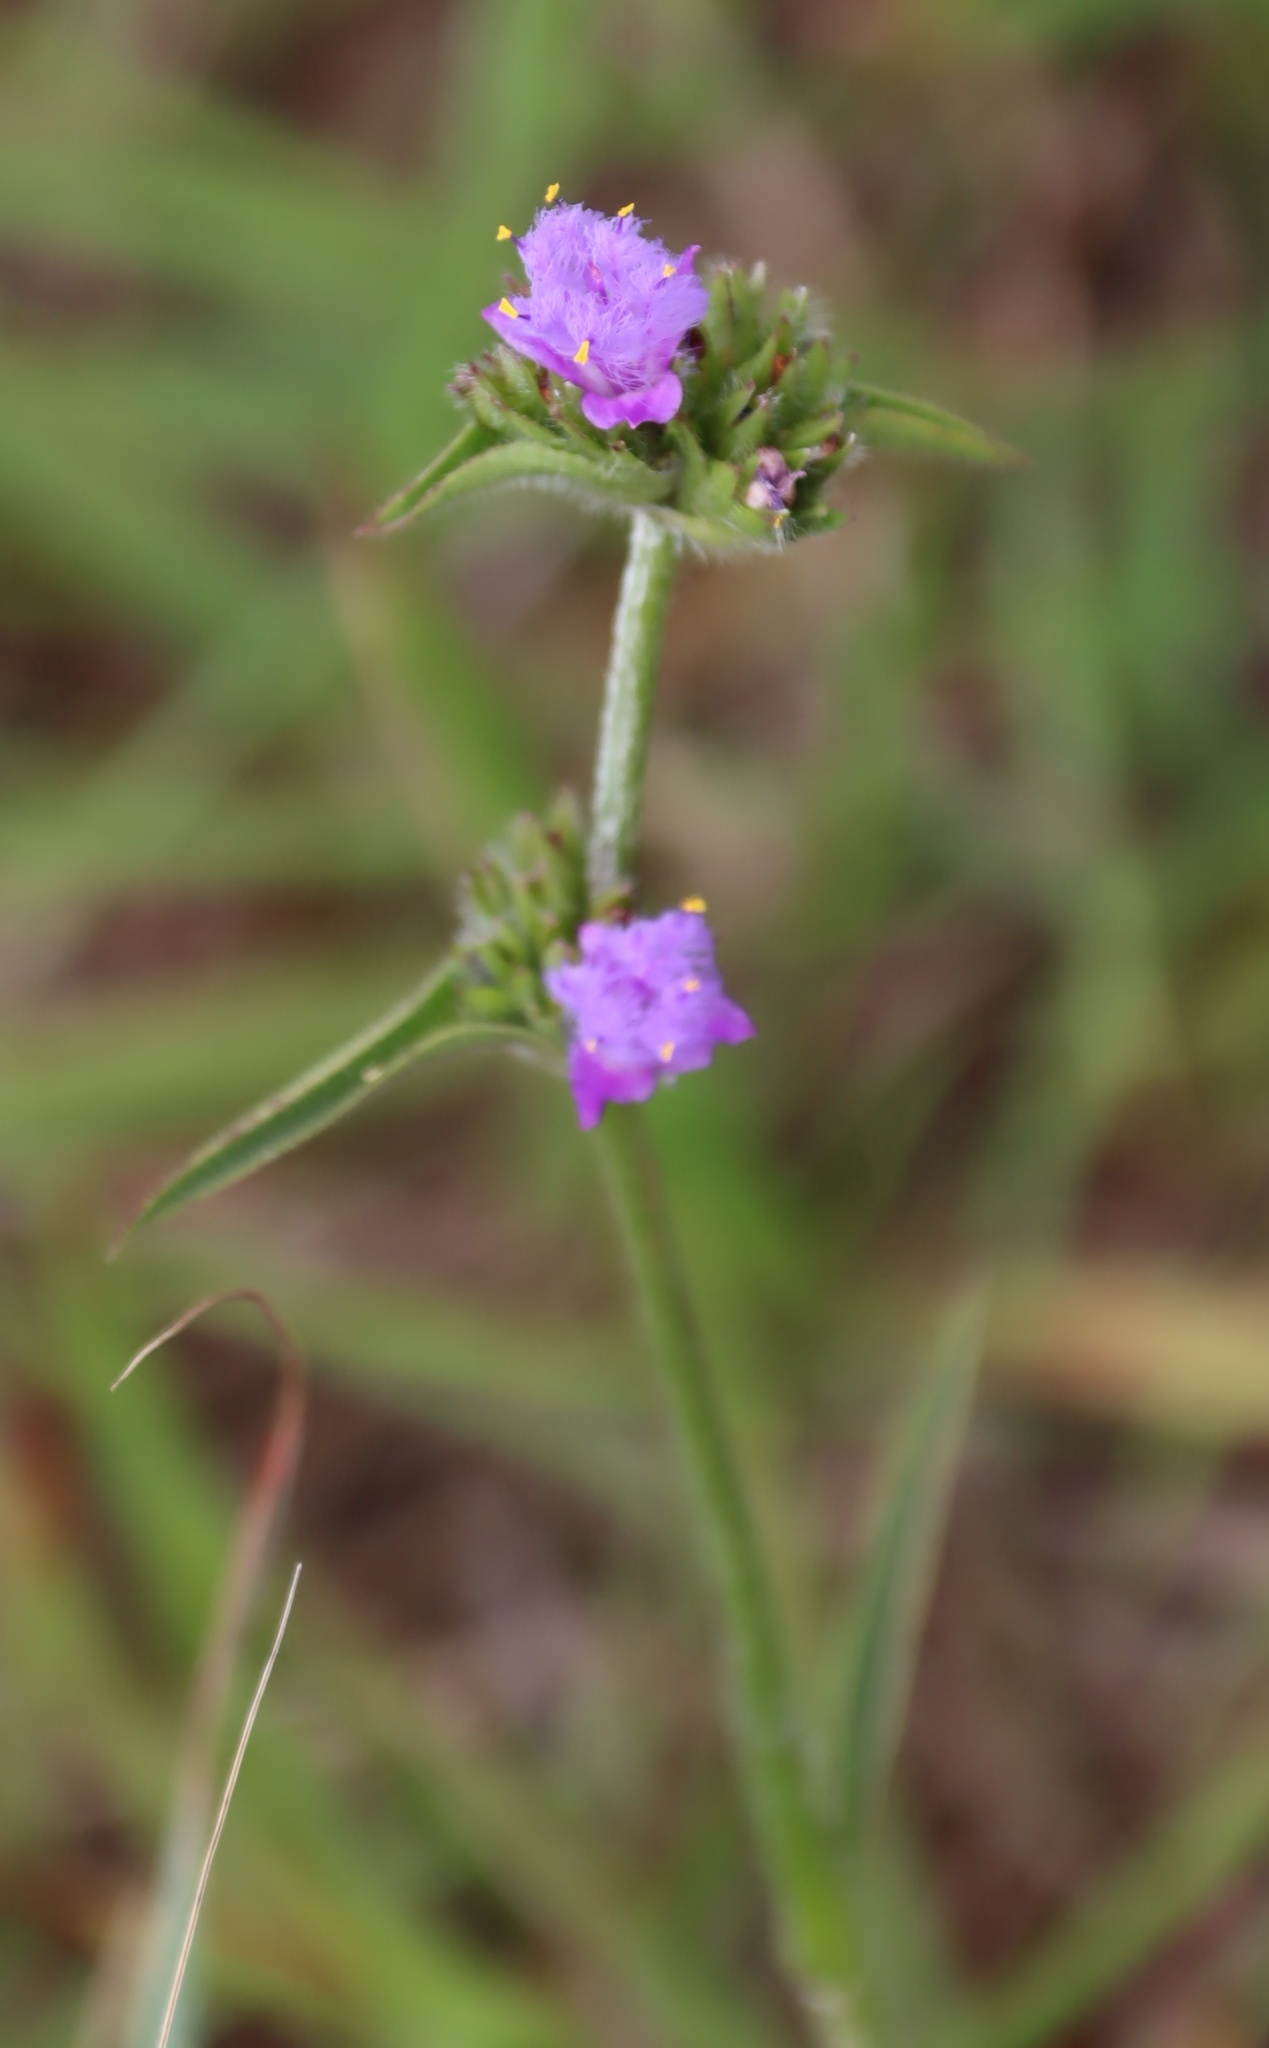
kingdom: Plantae
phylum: Tracheophyta
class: Liliopsida
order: Commelinales
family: Commelinaceae
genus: Cyanotis
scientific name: Cyanotis speciosa
